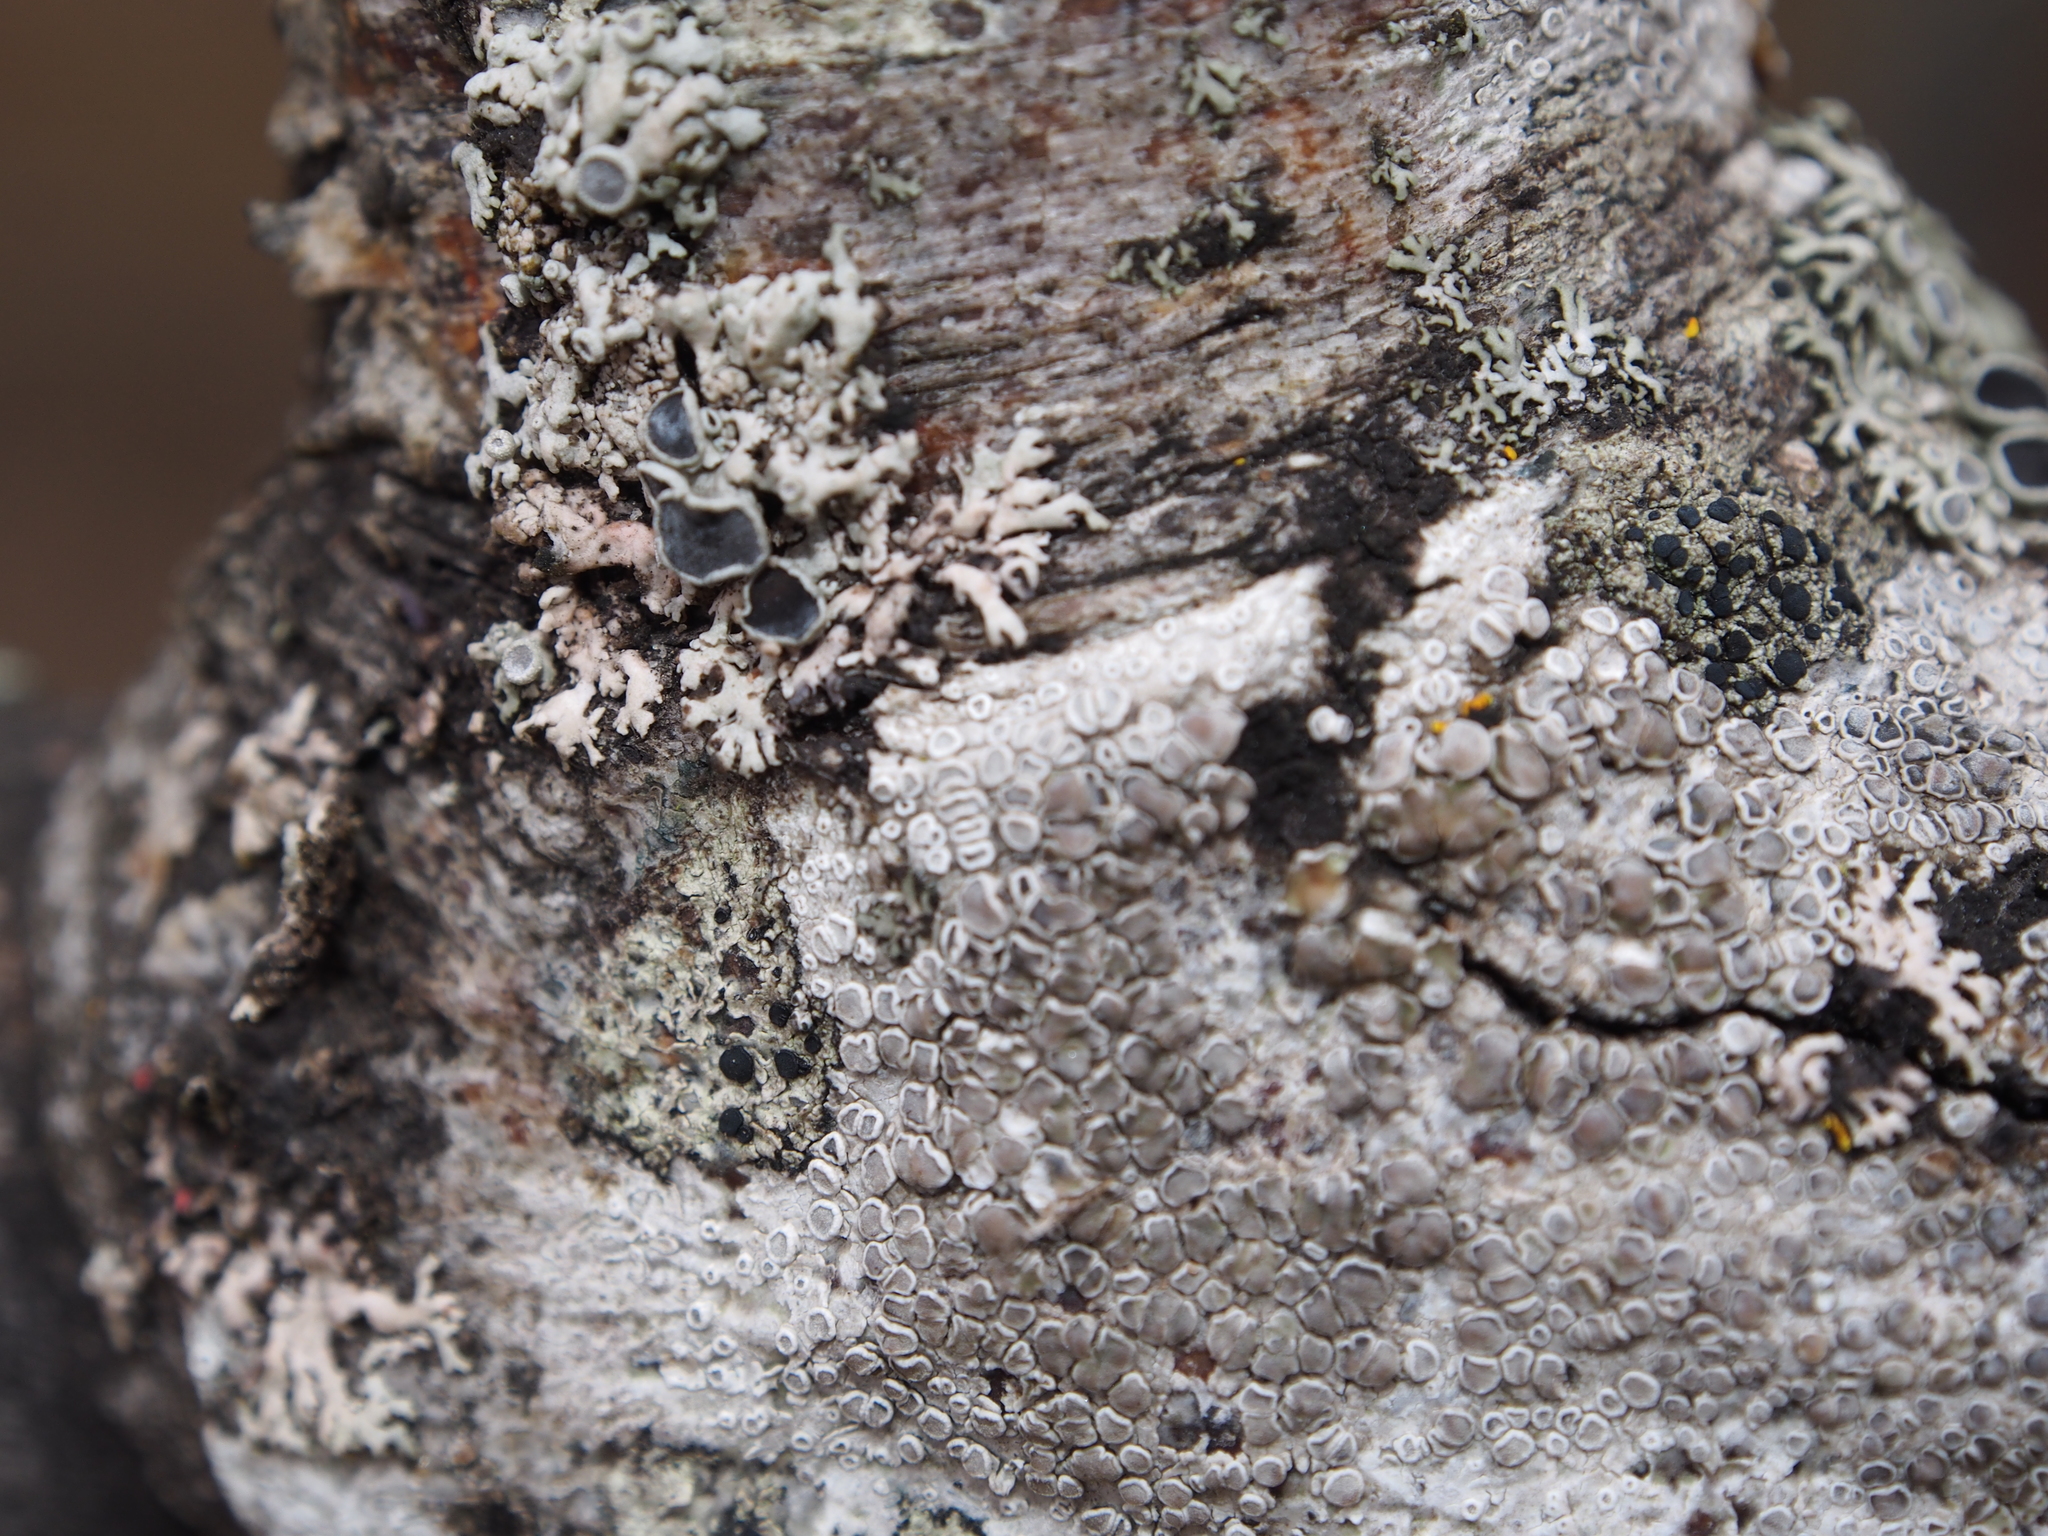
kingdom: Fungi
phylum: Ascomycota
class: Sordariomycetes
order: Hypocreales
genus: Illosporiopsis
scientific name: Illosporiopsis christiansenii
